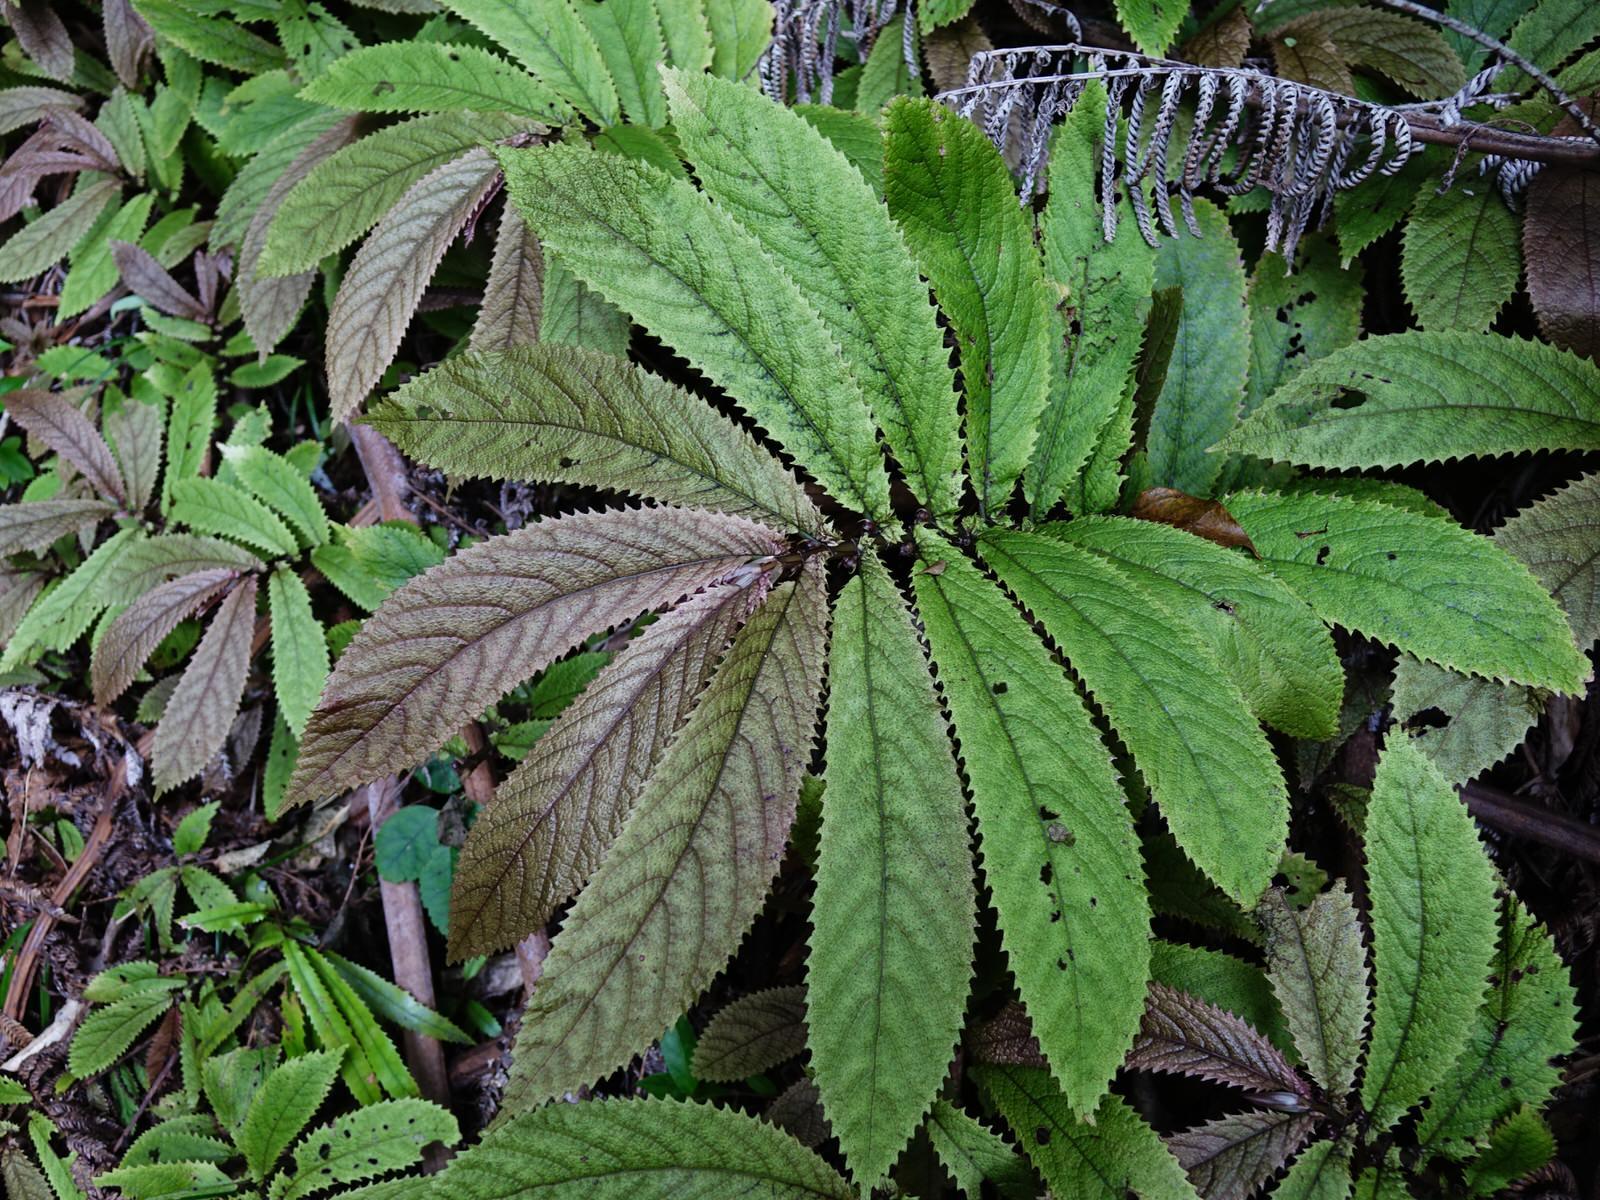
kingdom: Plantae
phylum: Tracheophyta
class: Magnoliopsida
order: Rosales
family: Urticaceae
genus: Elatostema
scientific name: Elatostema rugosum
